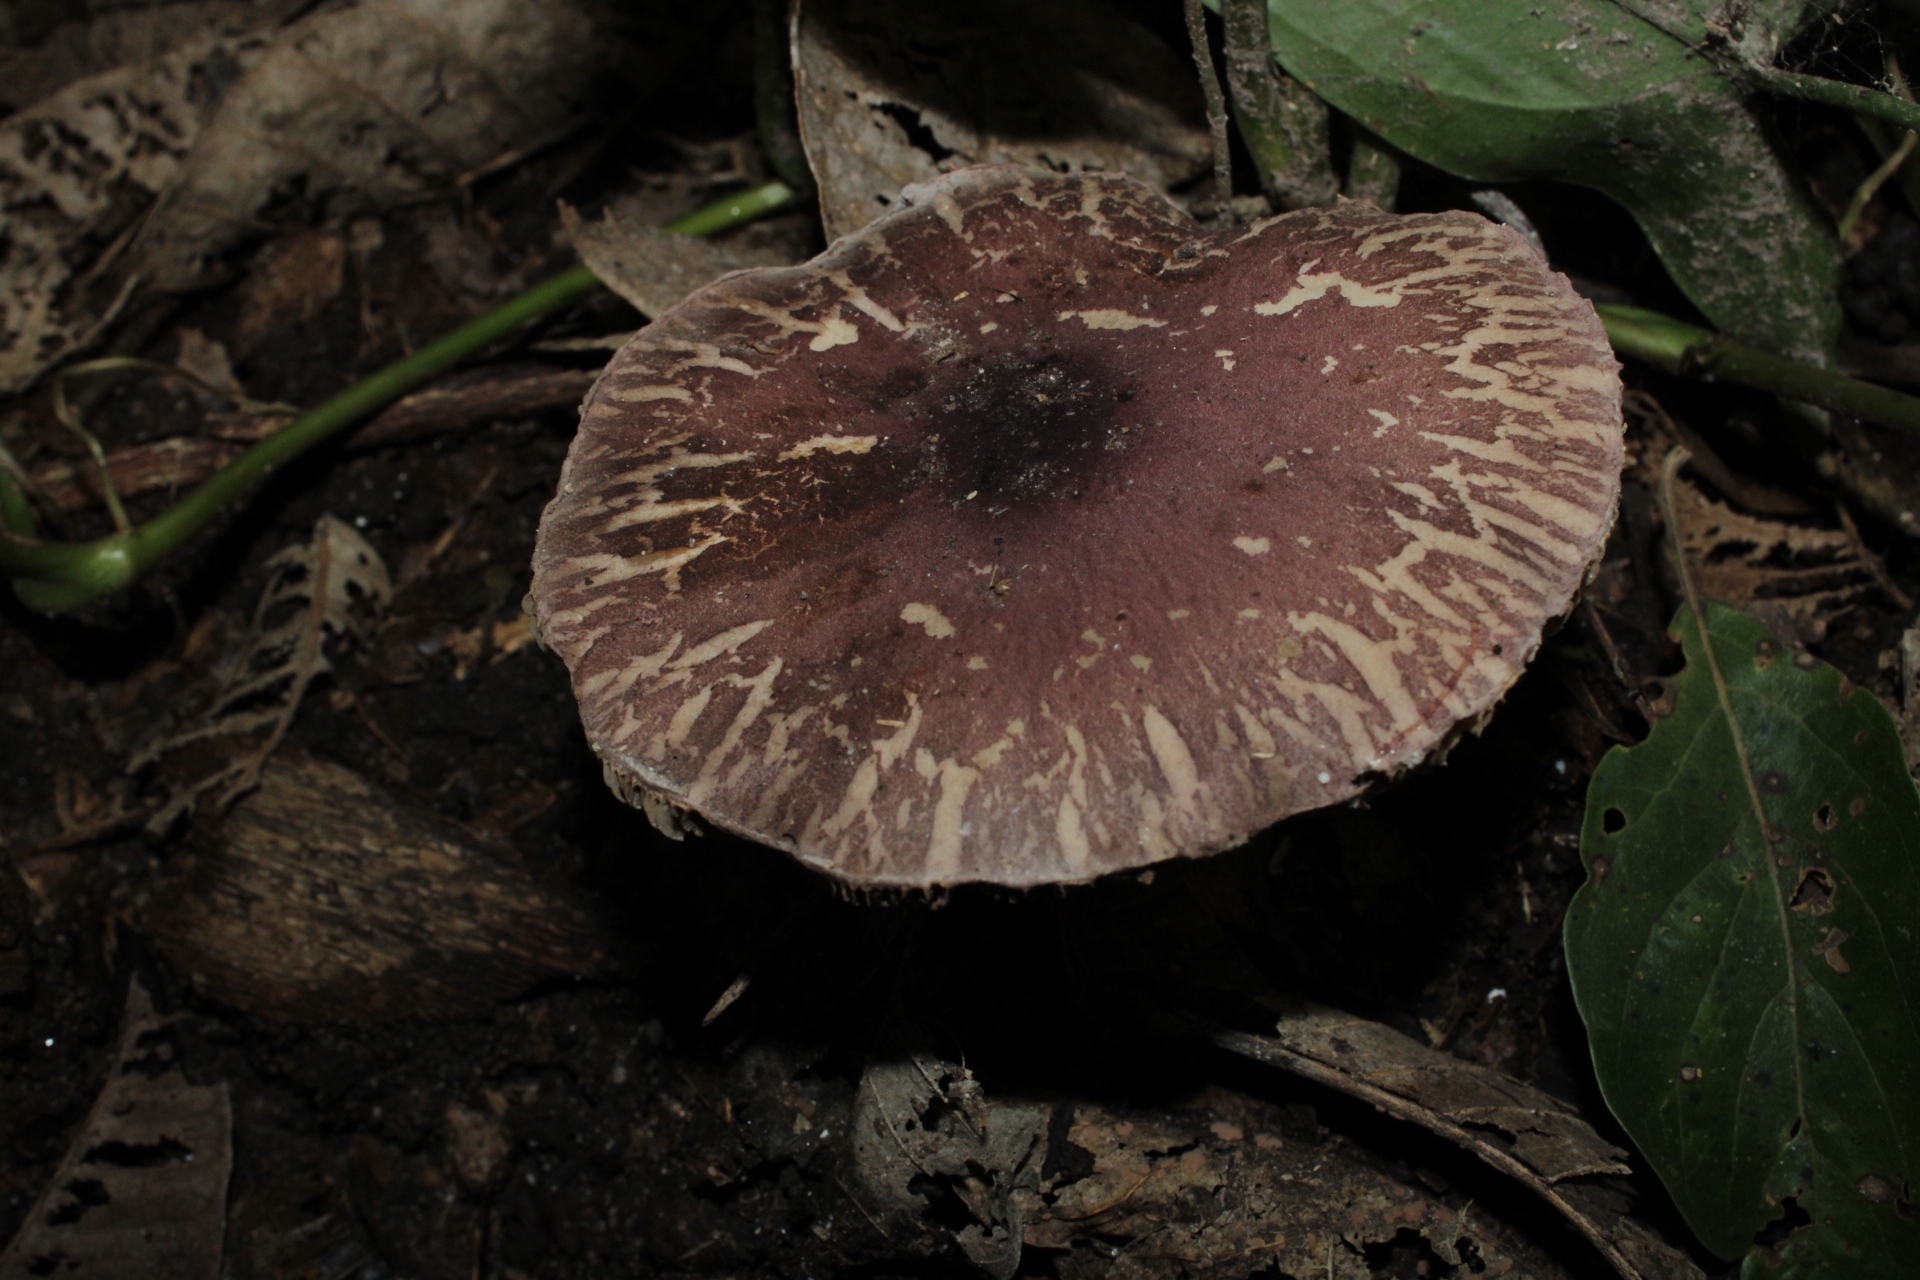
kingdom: Fungi
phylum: Basidiomycota
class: Agaricomycetes
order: Agaricales
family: Agaricaceae
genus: Leucoagaricus
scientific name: Leucoagaricus lilaceus
